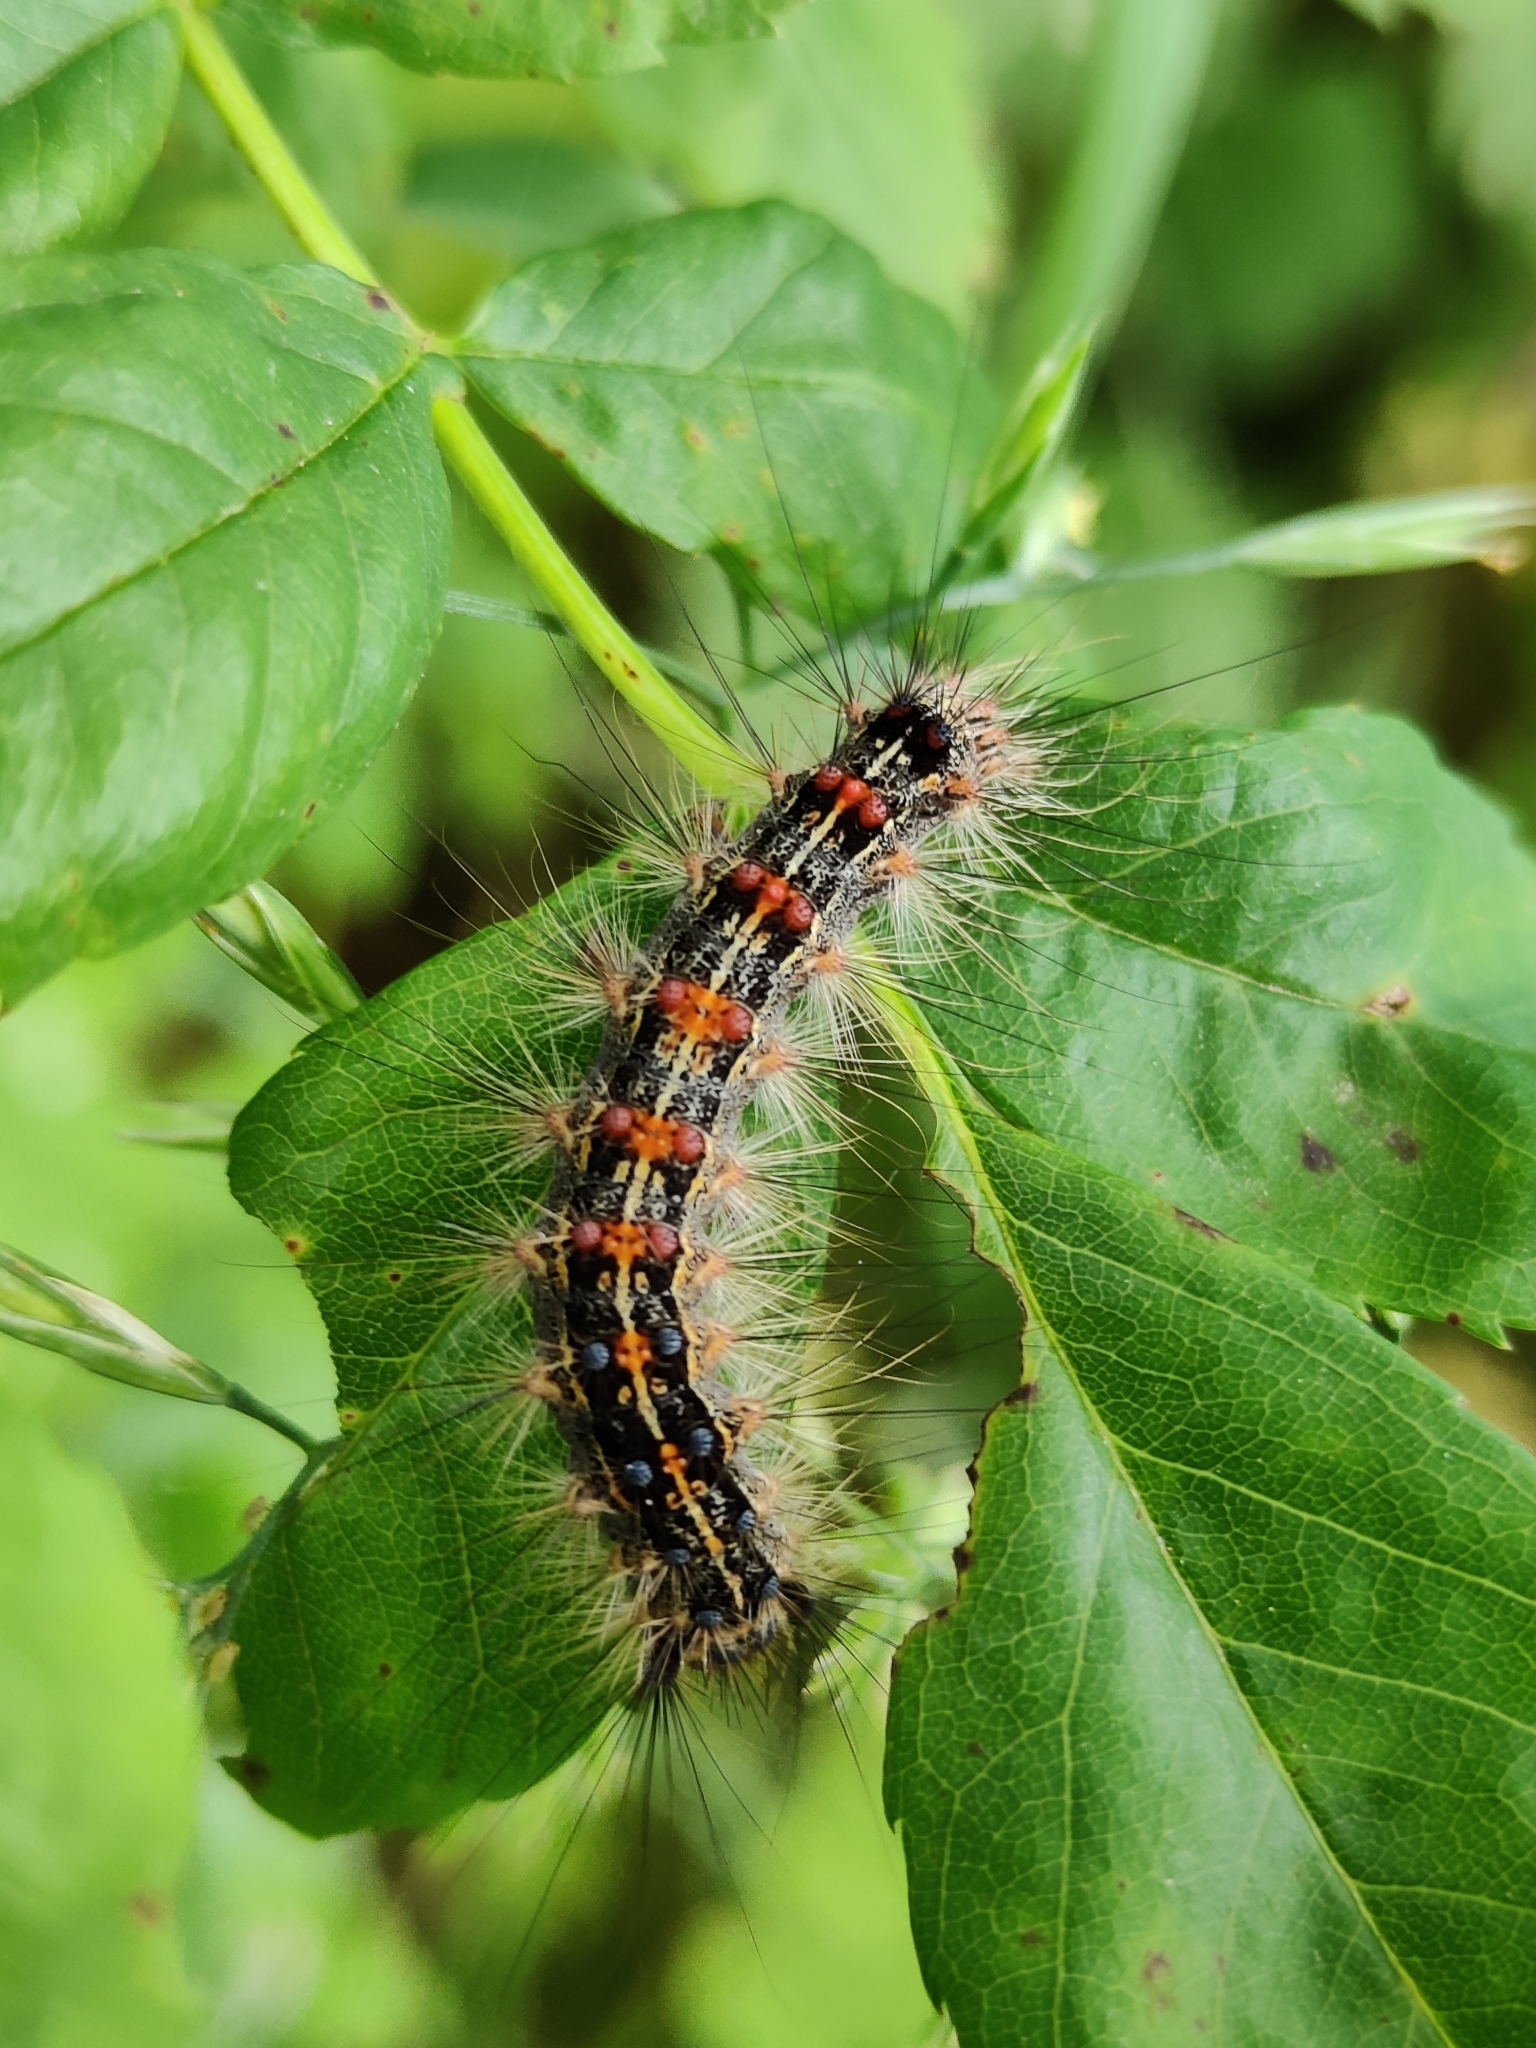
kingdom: Animalia
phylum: Arthropoda
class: Insecta
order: Lepidoptera
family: Erebidae
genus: Lymantria
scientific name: Lymantria dispar
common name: Gypsy moth
